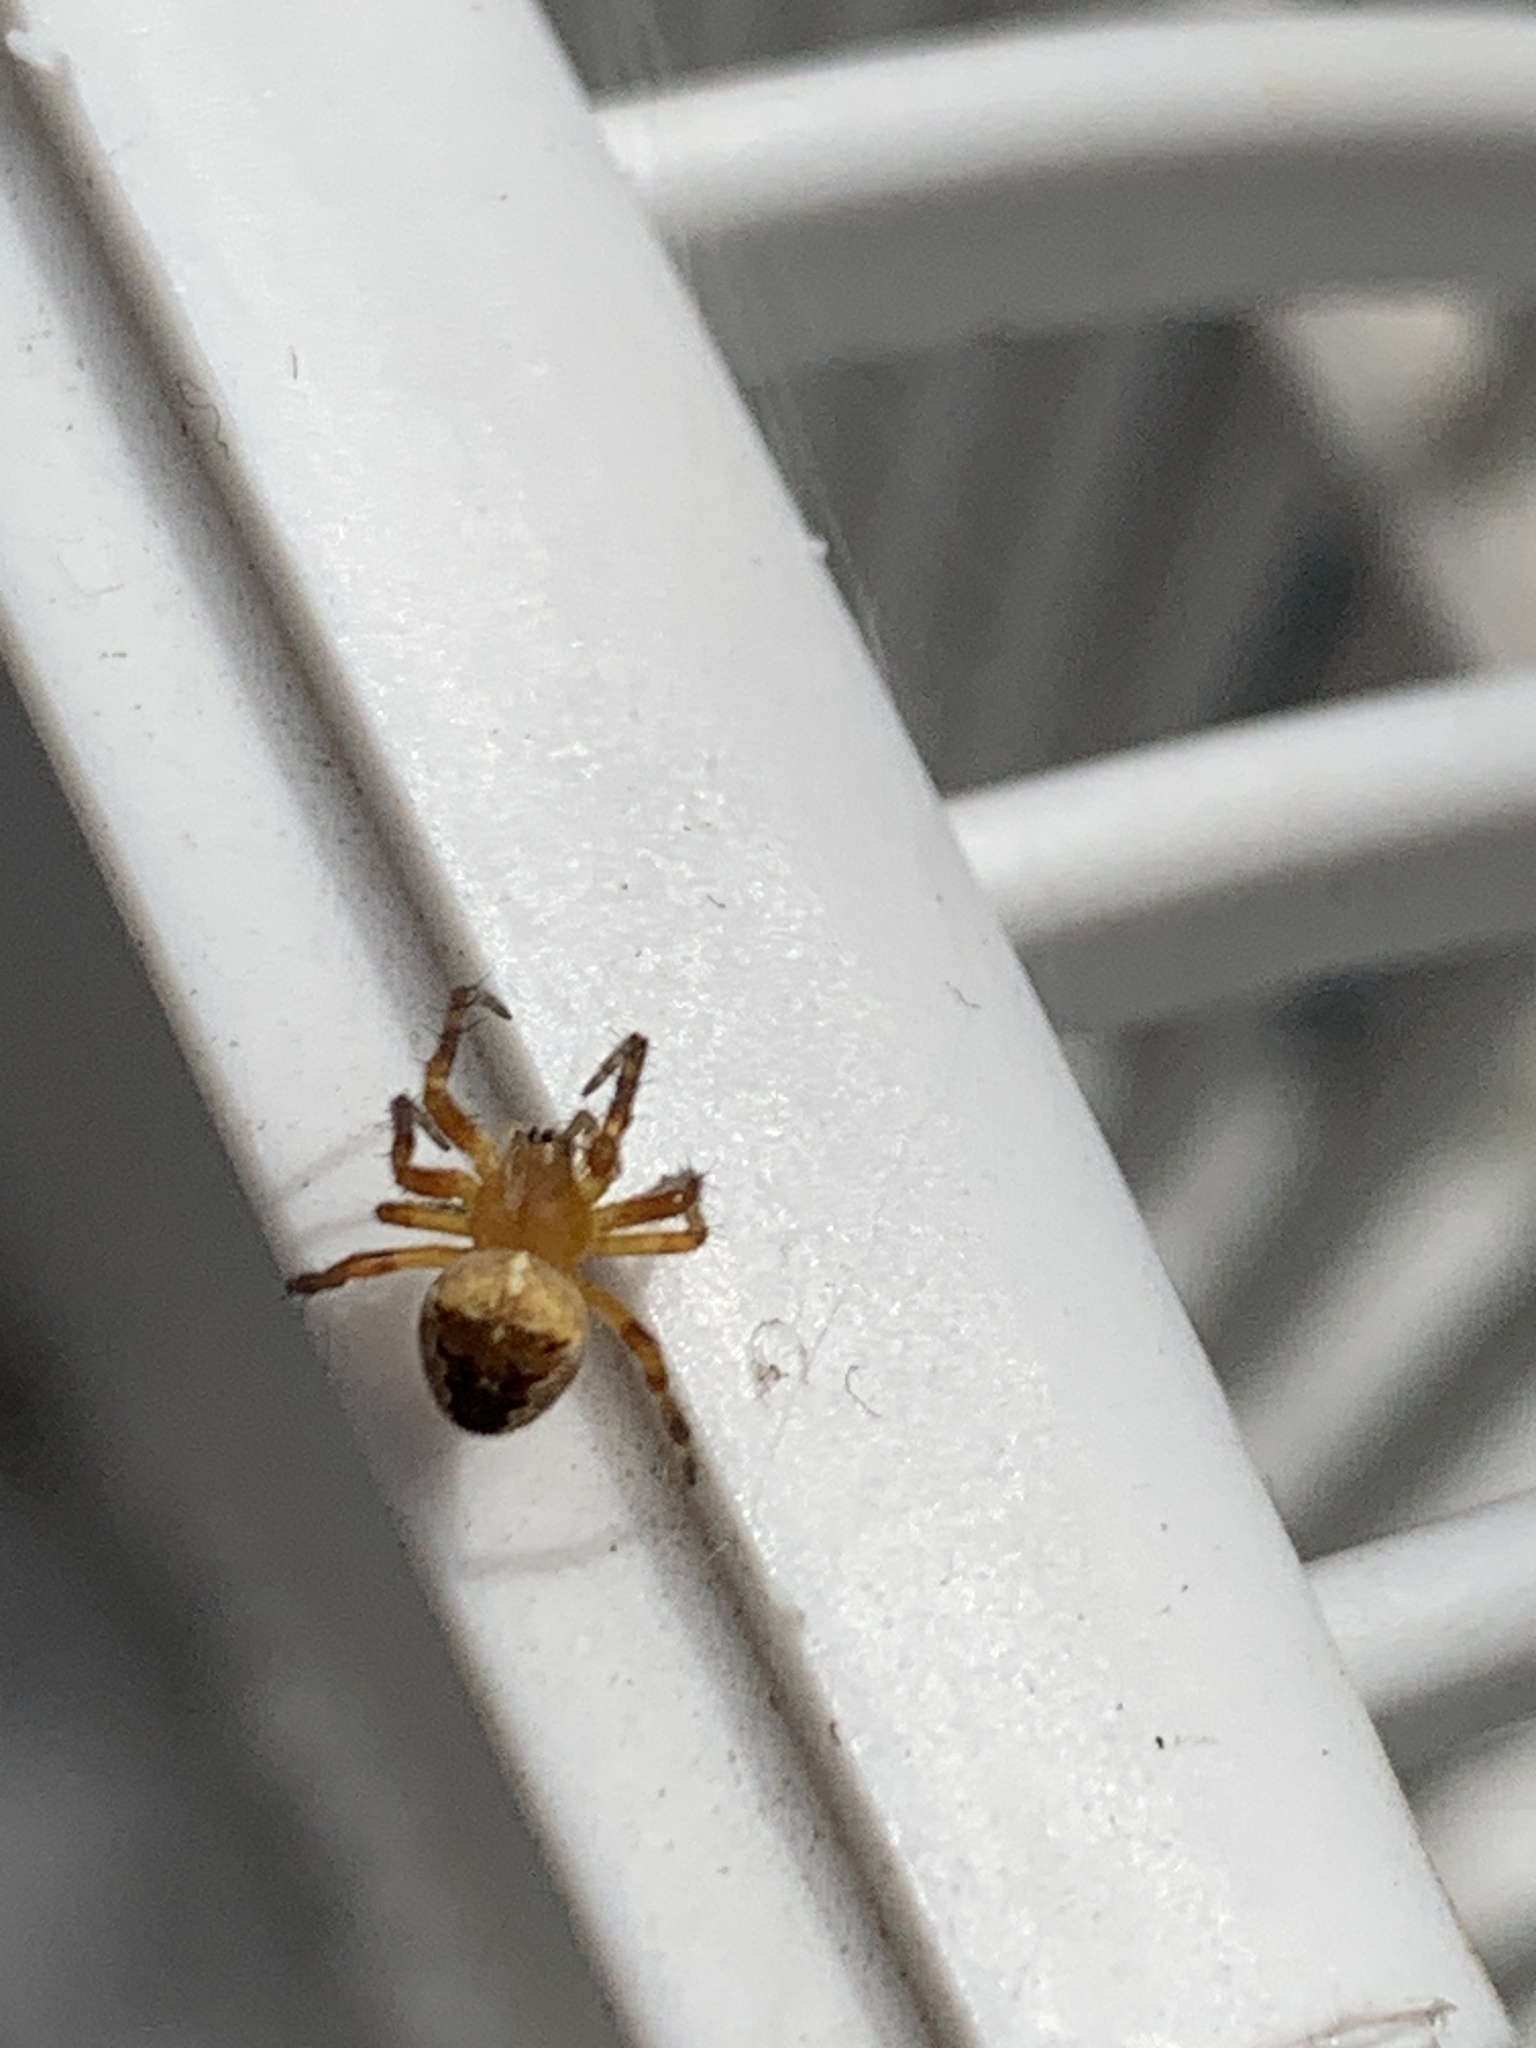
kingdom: Animalia
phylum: Arthropoda
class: Arachnida
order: Araneae
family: Araneidae
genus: Araneus
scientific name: Araneus diadematus
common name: Cross orbweaver
